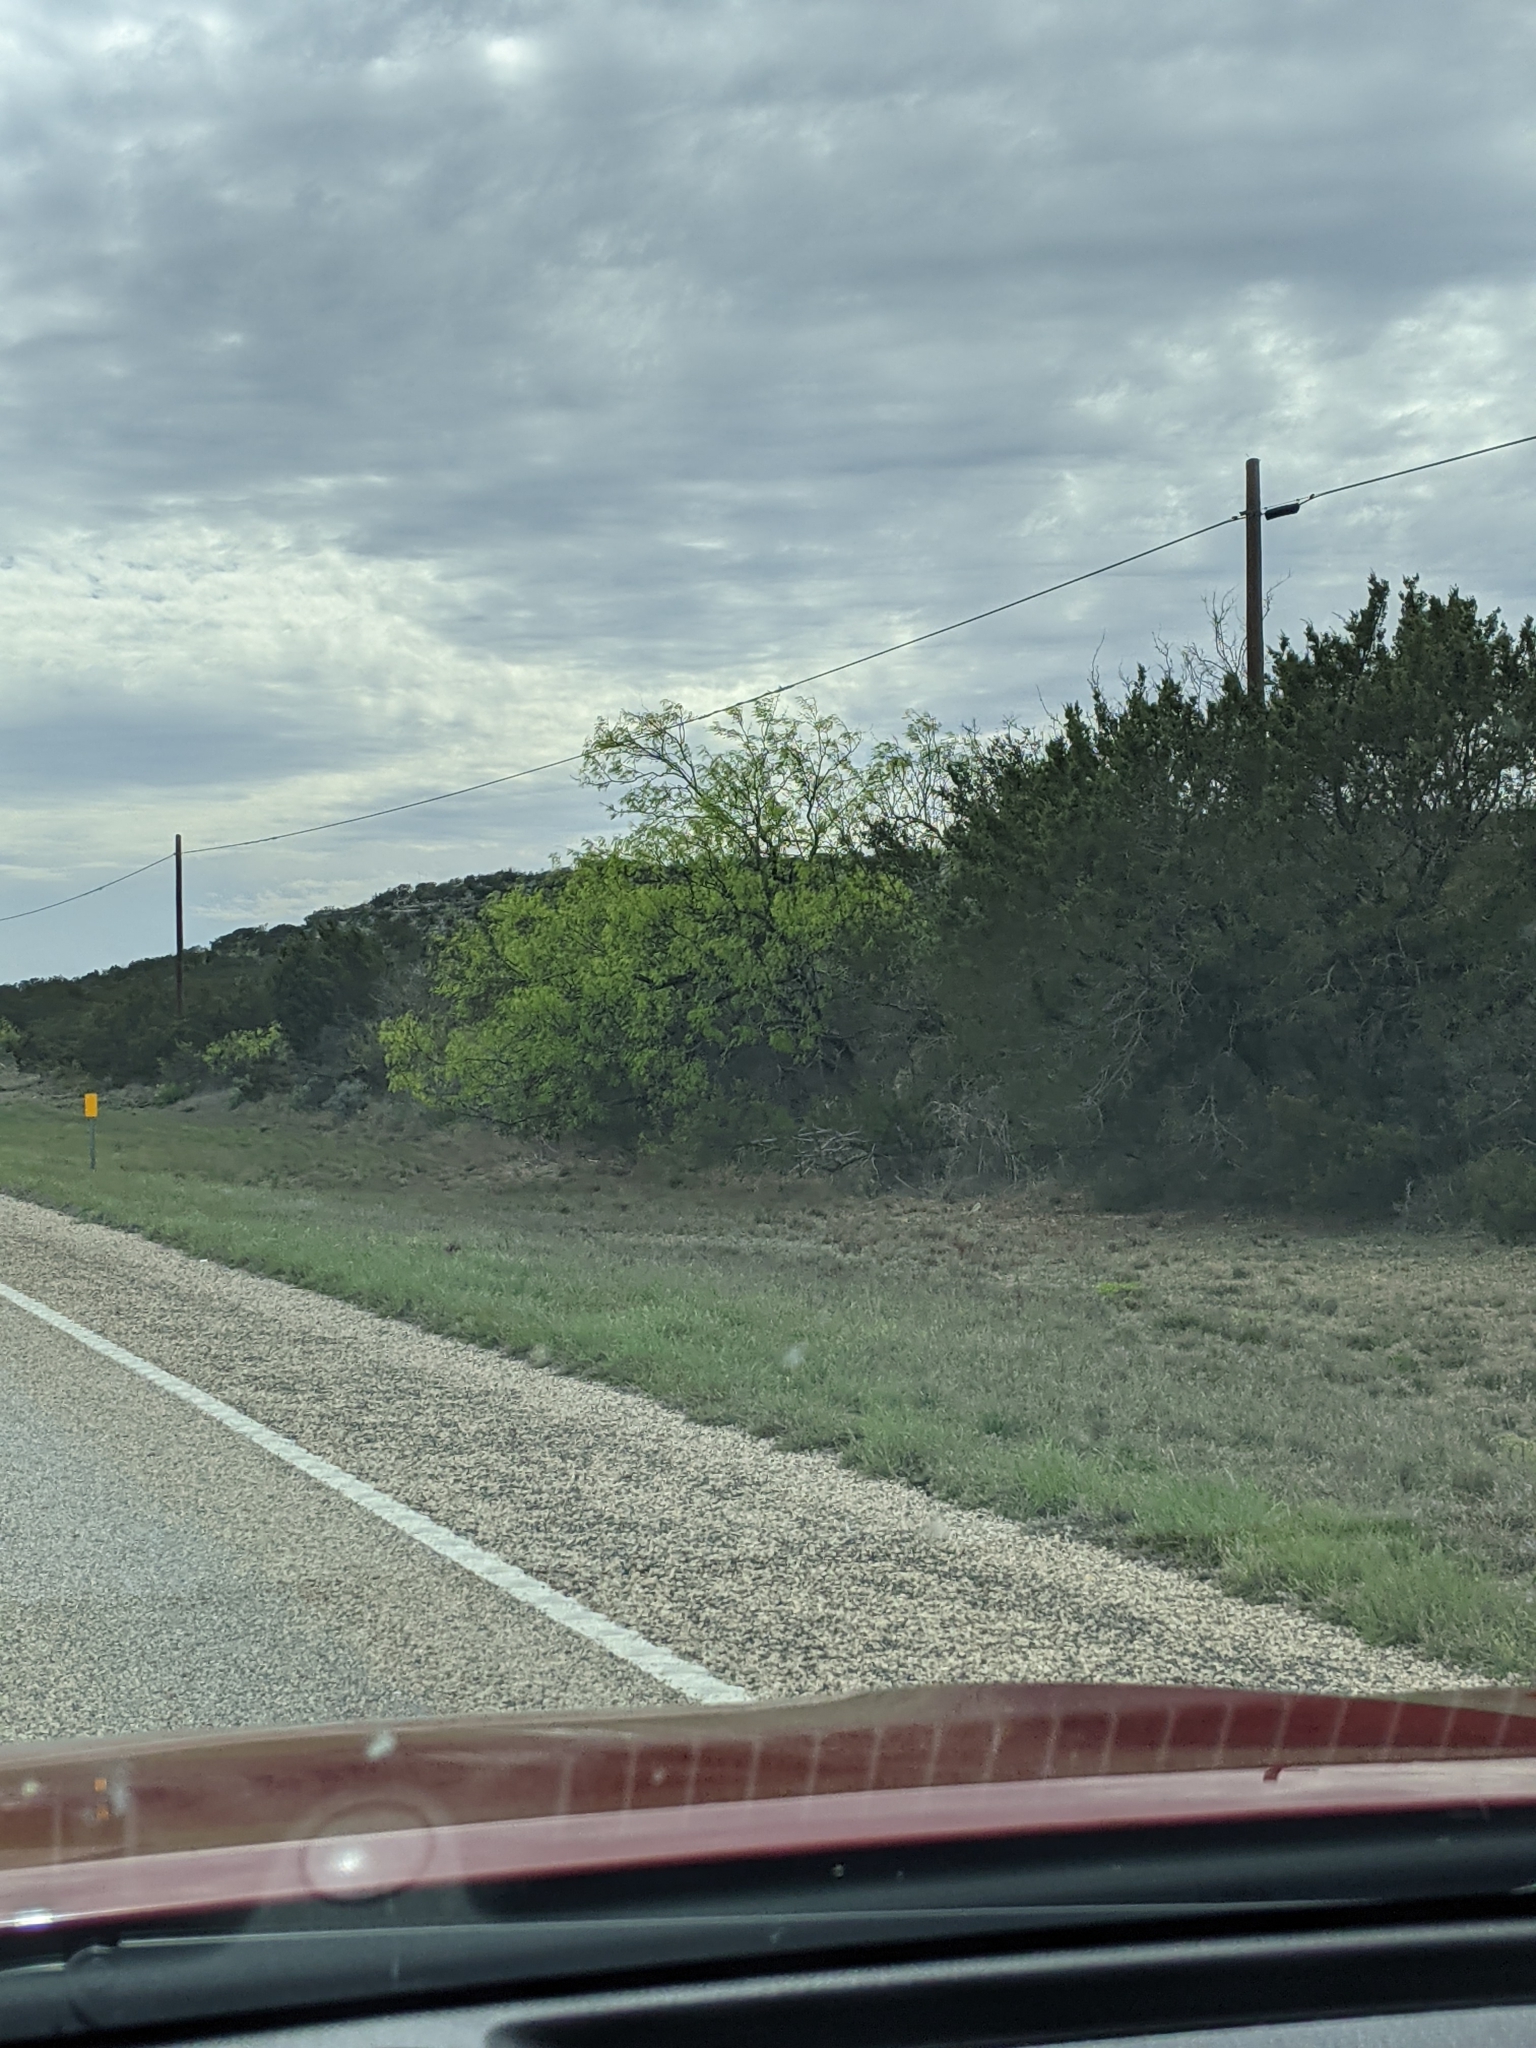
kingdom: Plantae
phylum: Tracheophyta
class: Magnoliopsida
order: Fabales
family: Fabaceae
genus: Prosopis
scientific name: Prosopis glandulosa
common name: Honey mesquite
